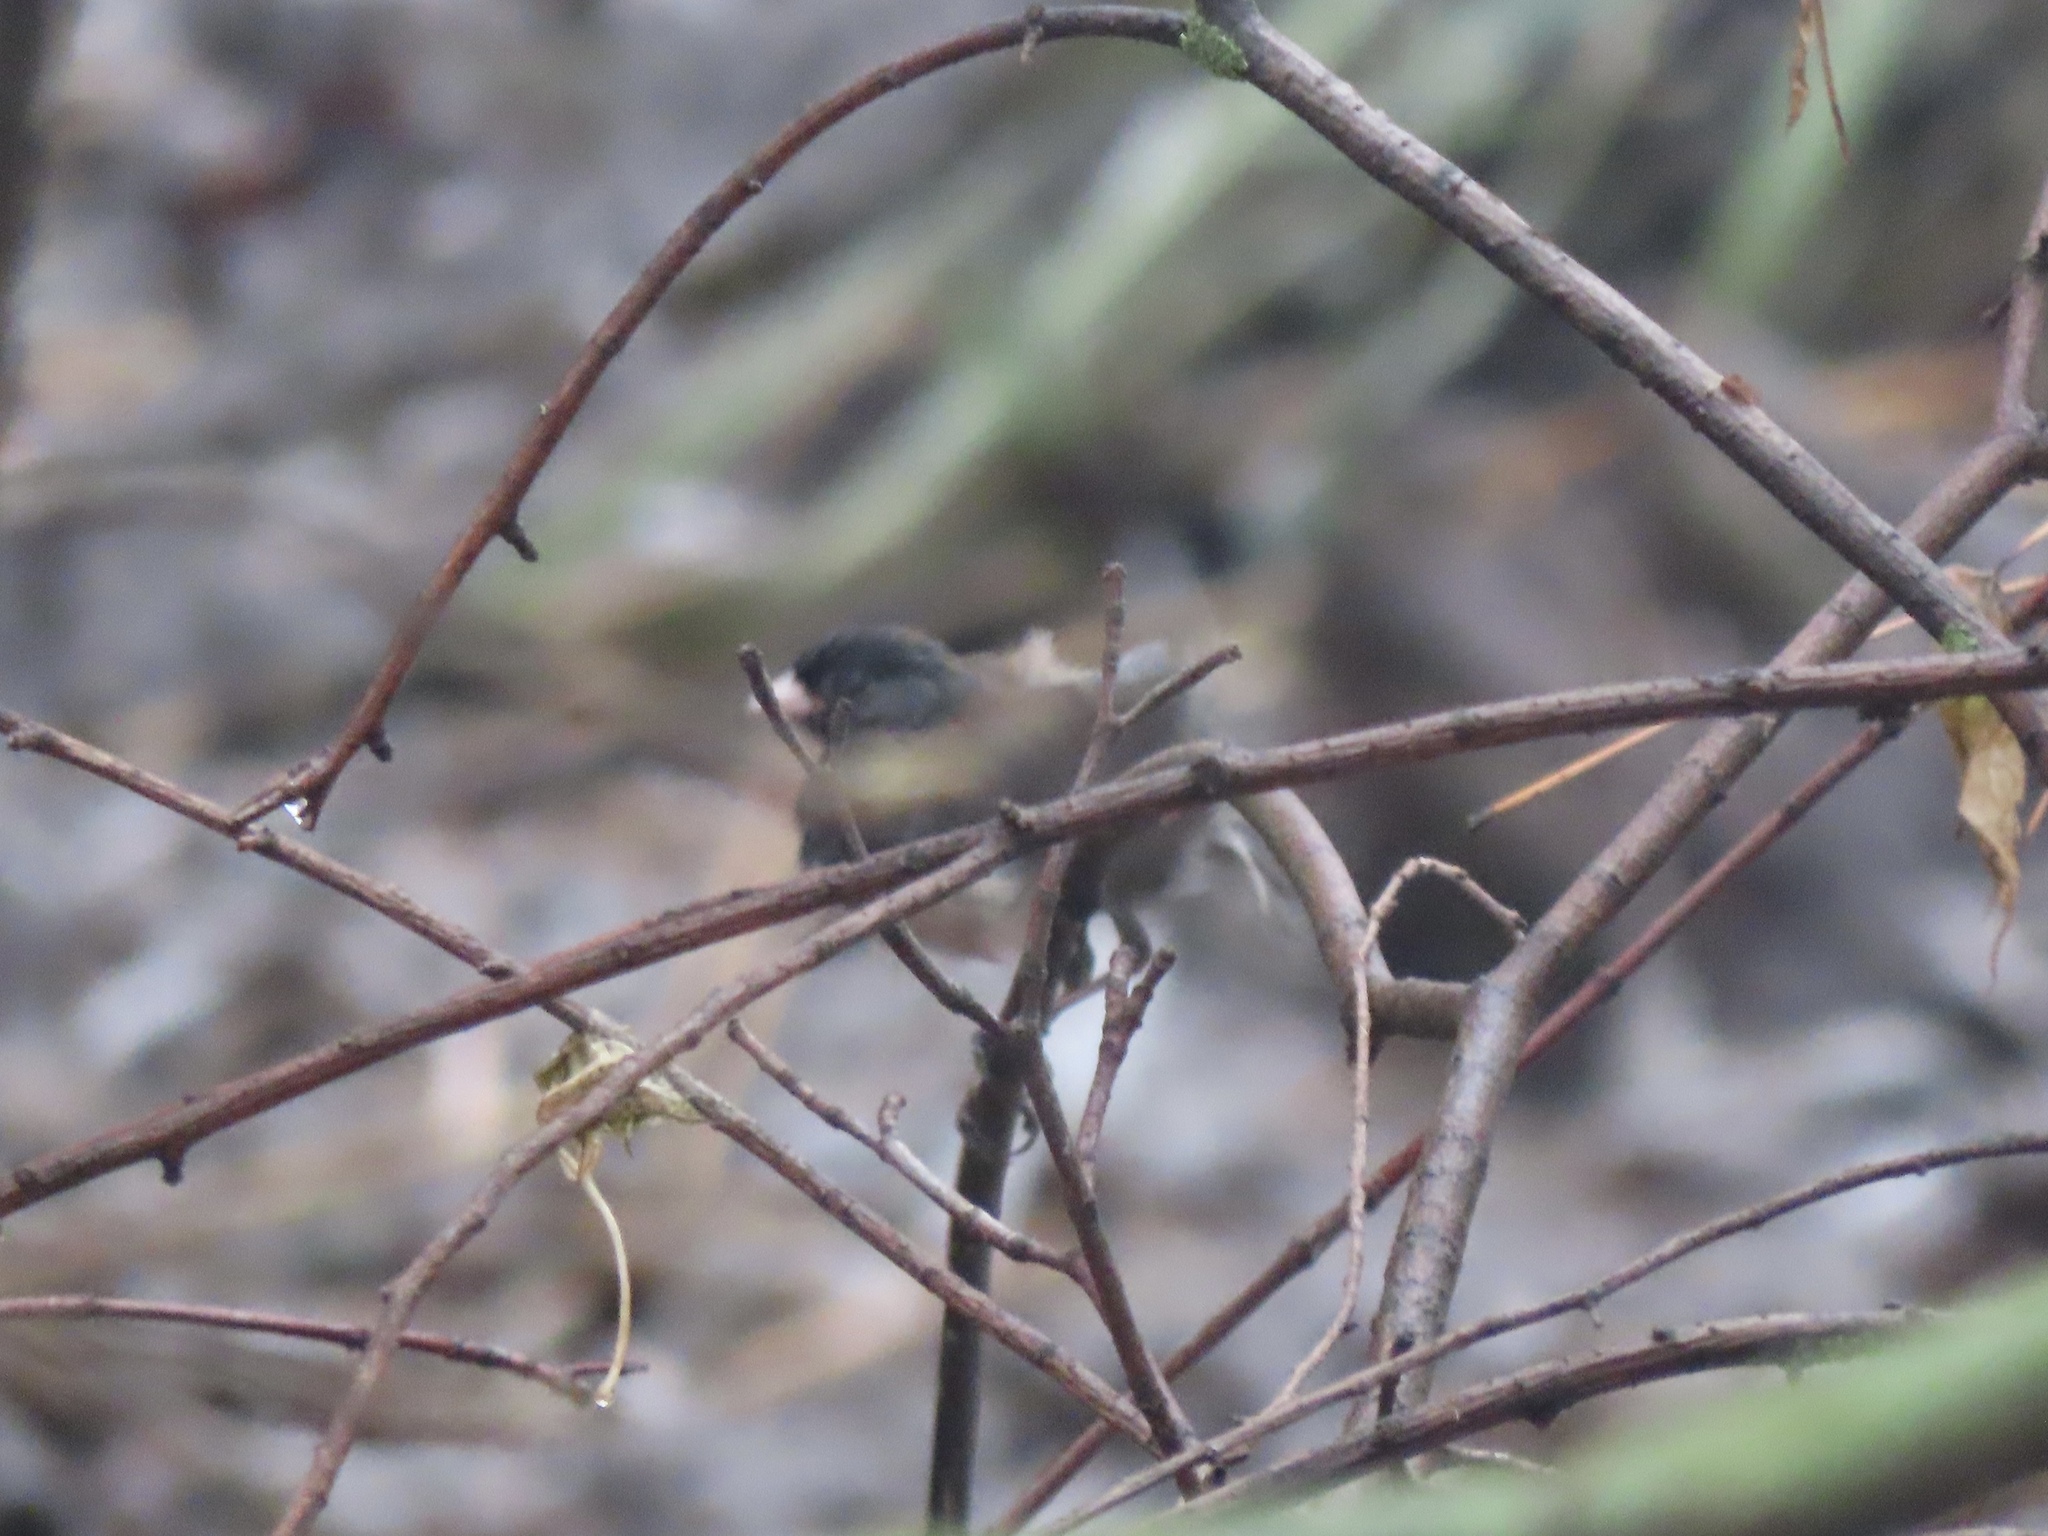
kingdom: Animalia
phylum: Chordata
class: Aves
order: Passeriformes
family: Passerellidae
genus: Junco
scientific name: Junco hyemalis
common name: Dark-eyed junco
